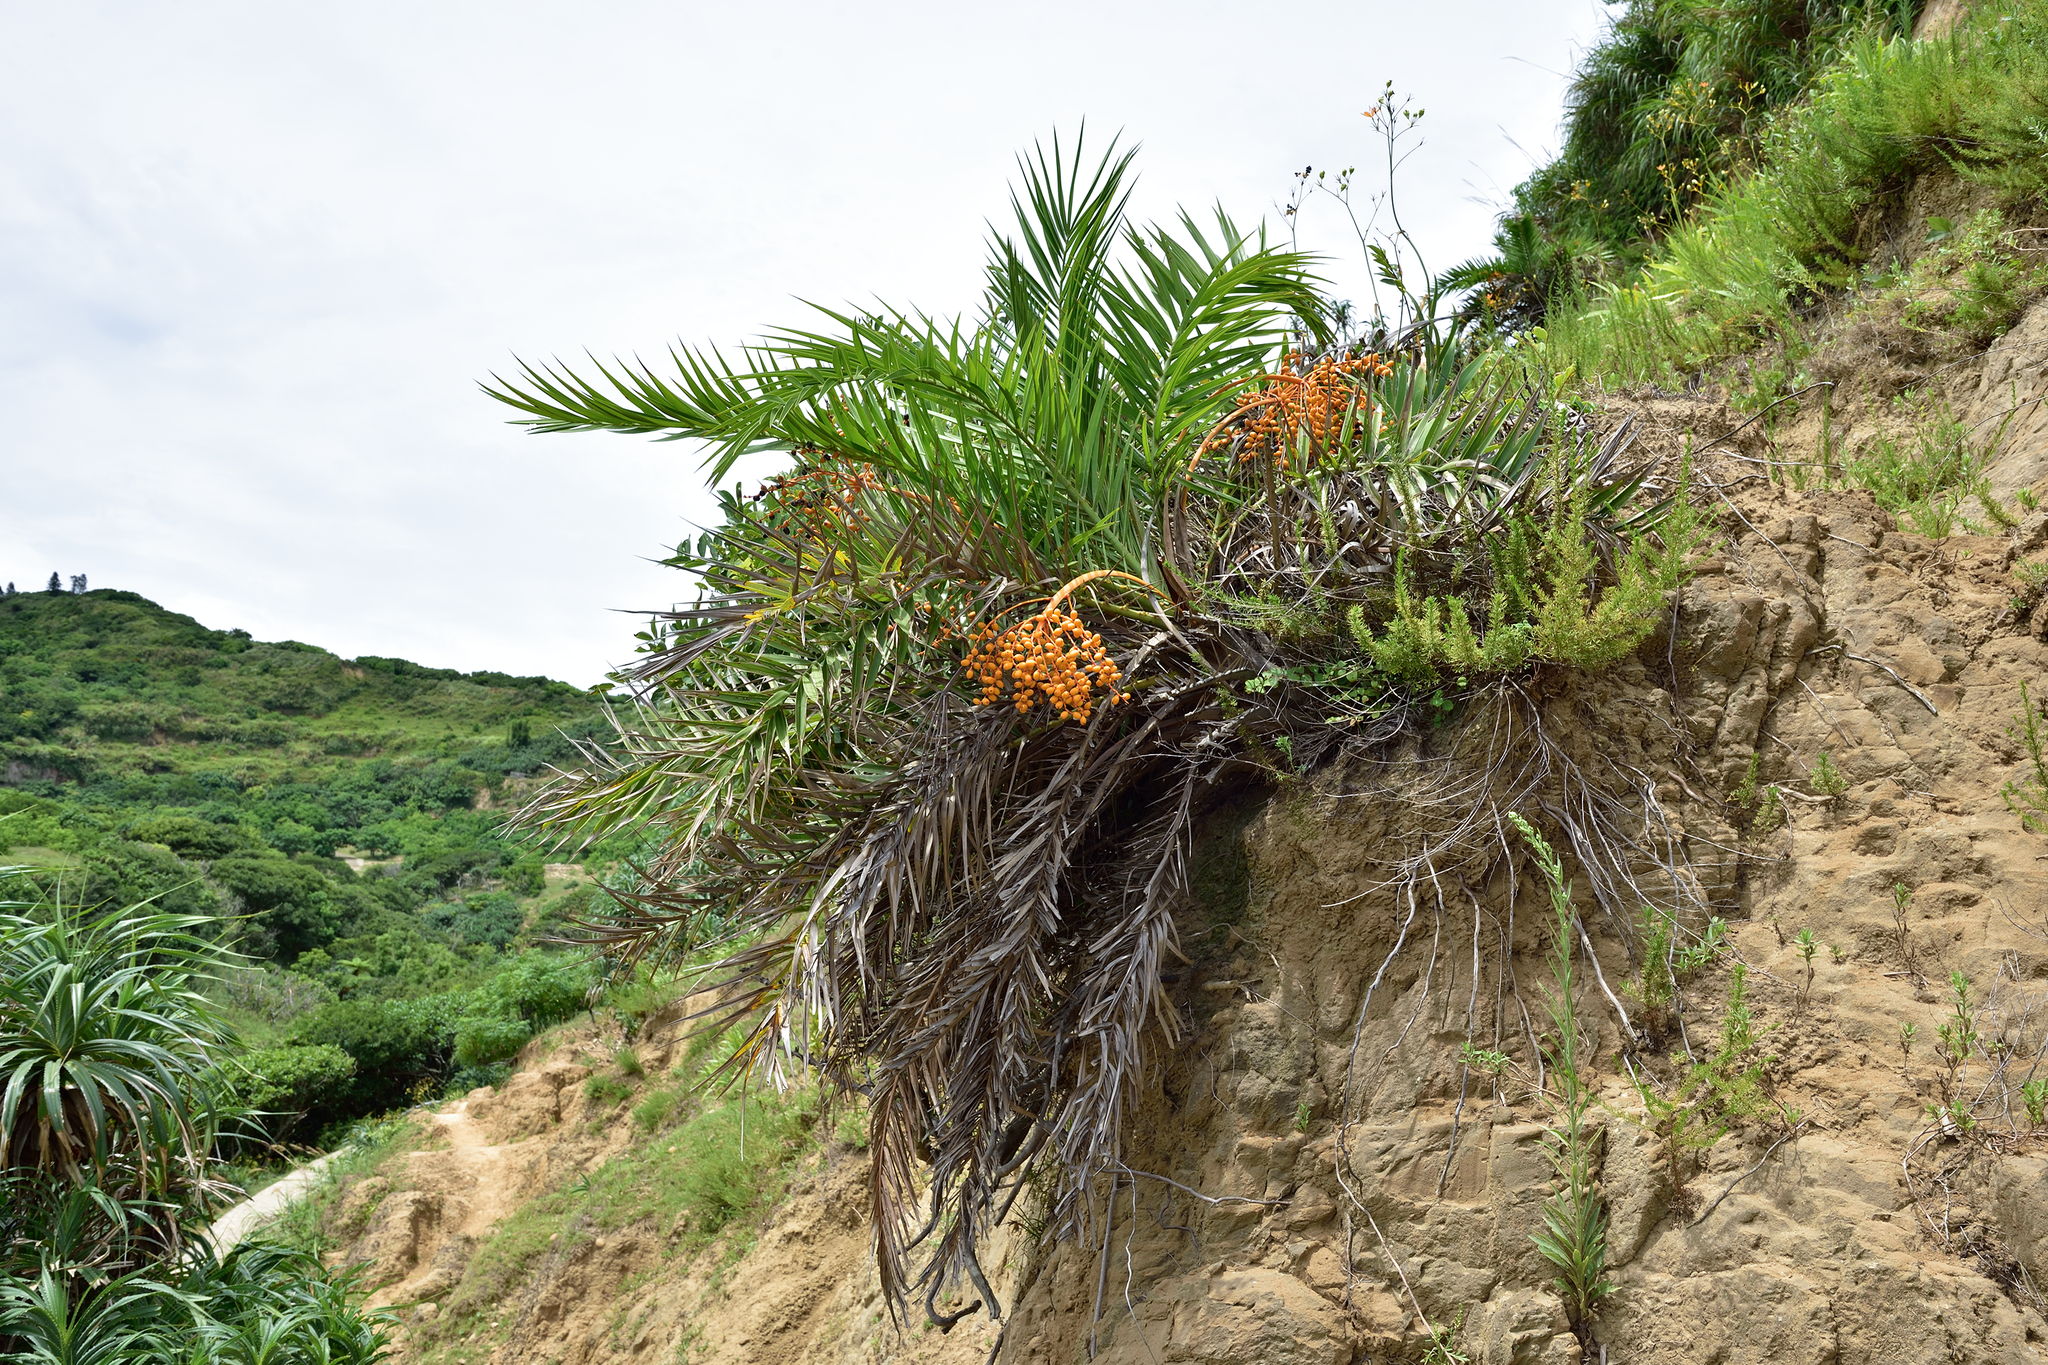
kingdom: Plantae
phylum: Tracheophyta
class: Liliopsida
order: Arecales
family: Arecaceae
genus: Phoenix
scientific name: Phoenix loureiroi
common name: Loureiro's palm
